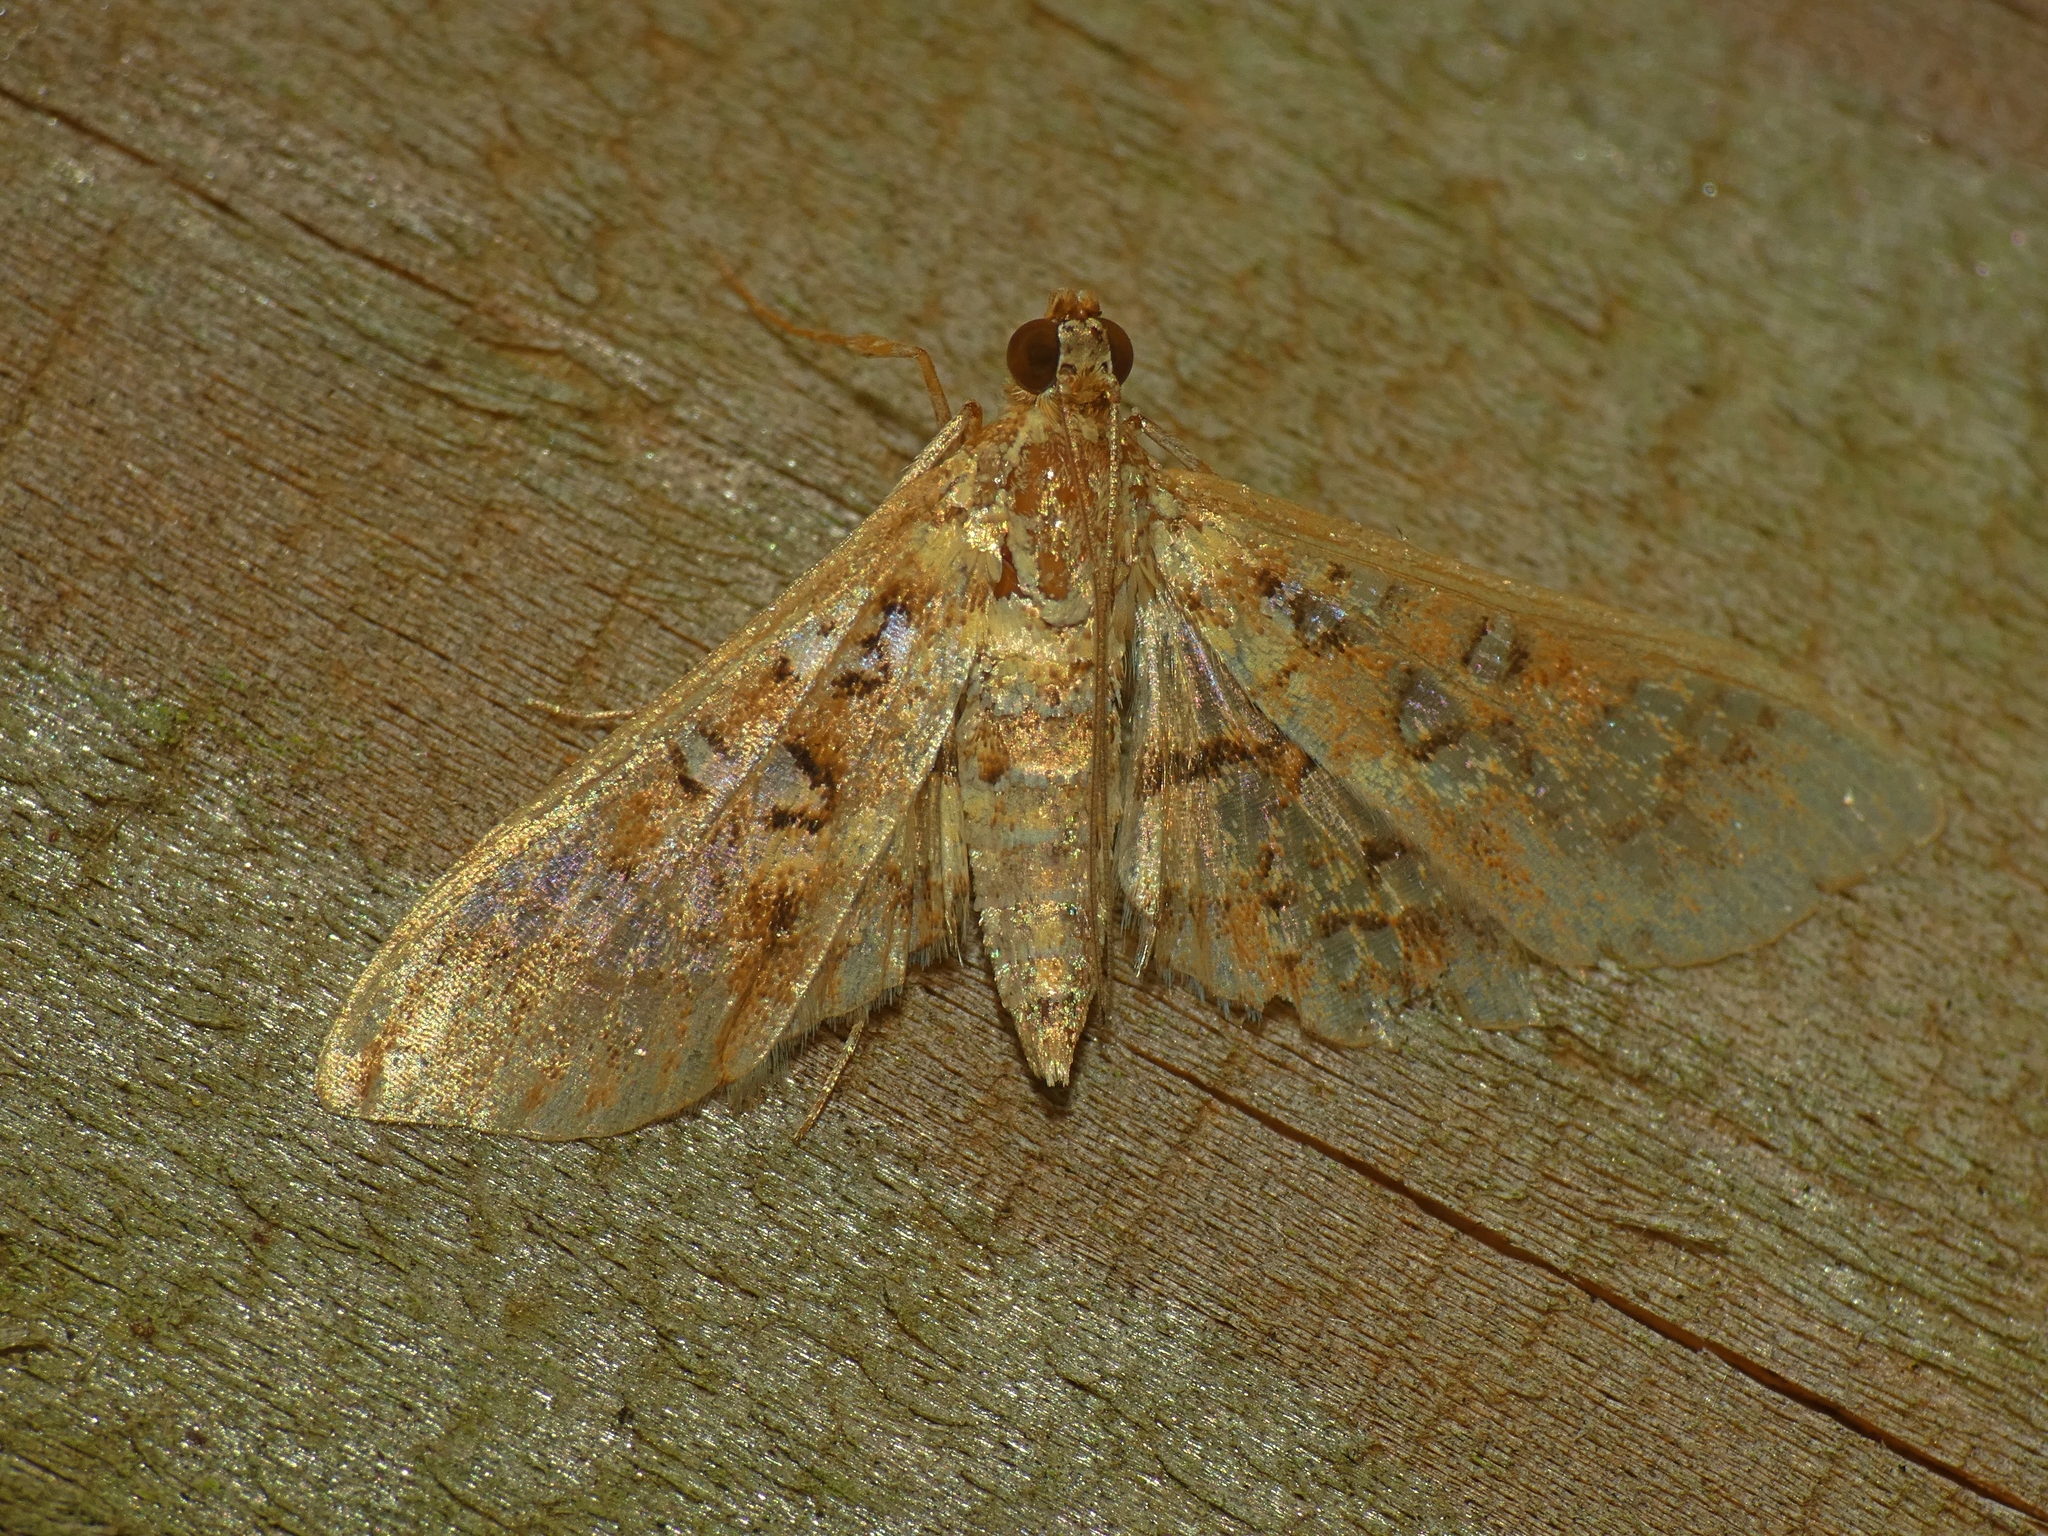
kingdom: Animalia
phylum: Arthropoda
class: Insecta
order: Lepidoptera
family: Crambidae
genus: Samea
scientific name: Samea multiplicalis
